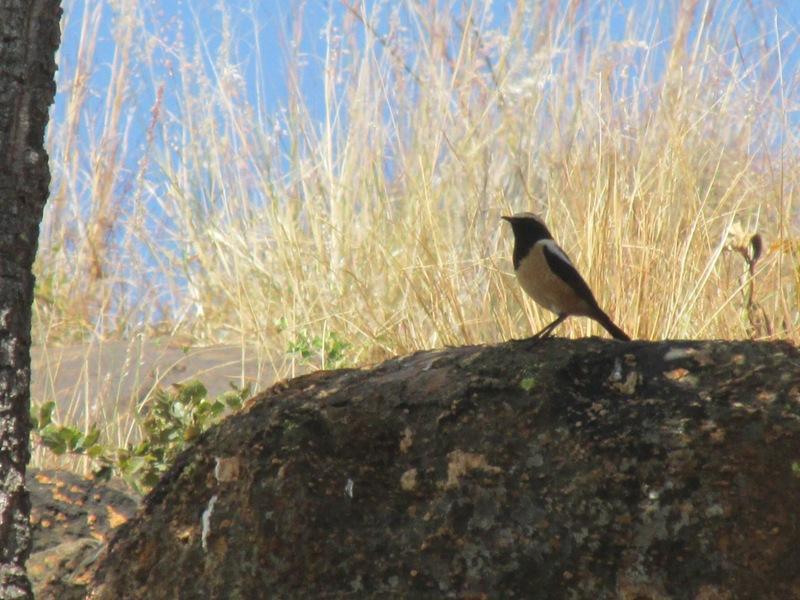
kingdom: Animalia
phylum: Chordata
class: Aves
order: Passeriformes
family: Muscicapidae
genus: Campicoloides
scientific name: Campicoloides bifasciatus
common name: Buff-streaked chat
